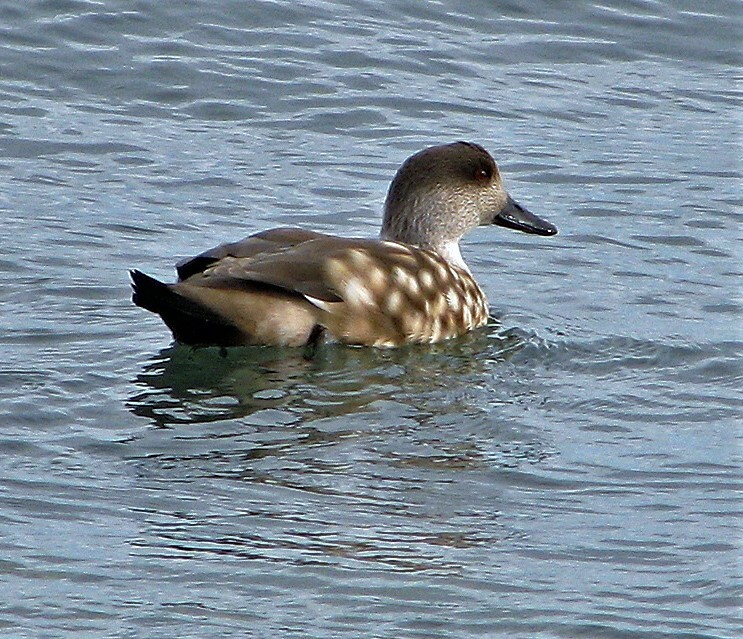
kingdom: Animalia
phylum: Chordata
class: Aves
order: Anseriformes
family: Anatidae
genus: Lophonetta
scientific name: Lophonetta specularioides
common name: Crested duck
